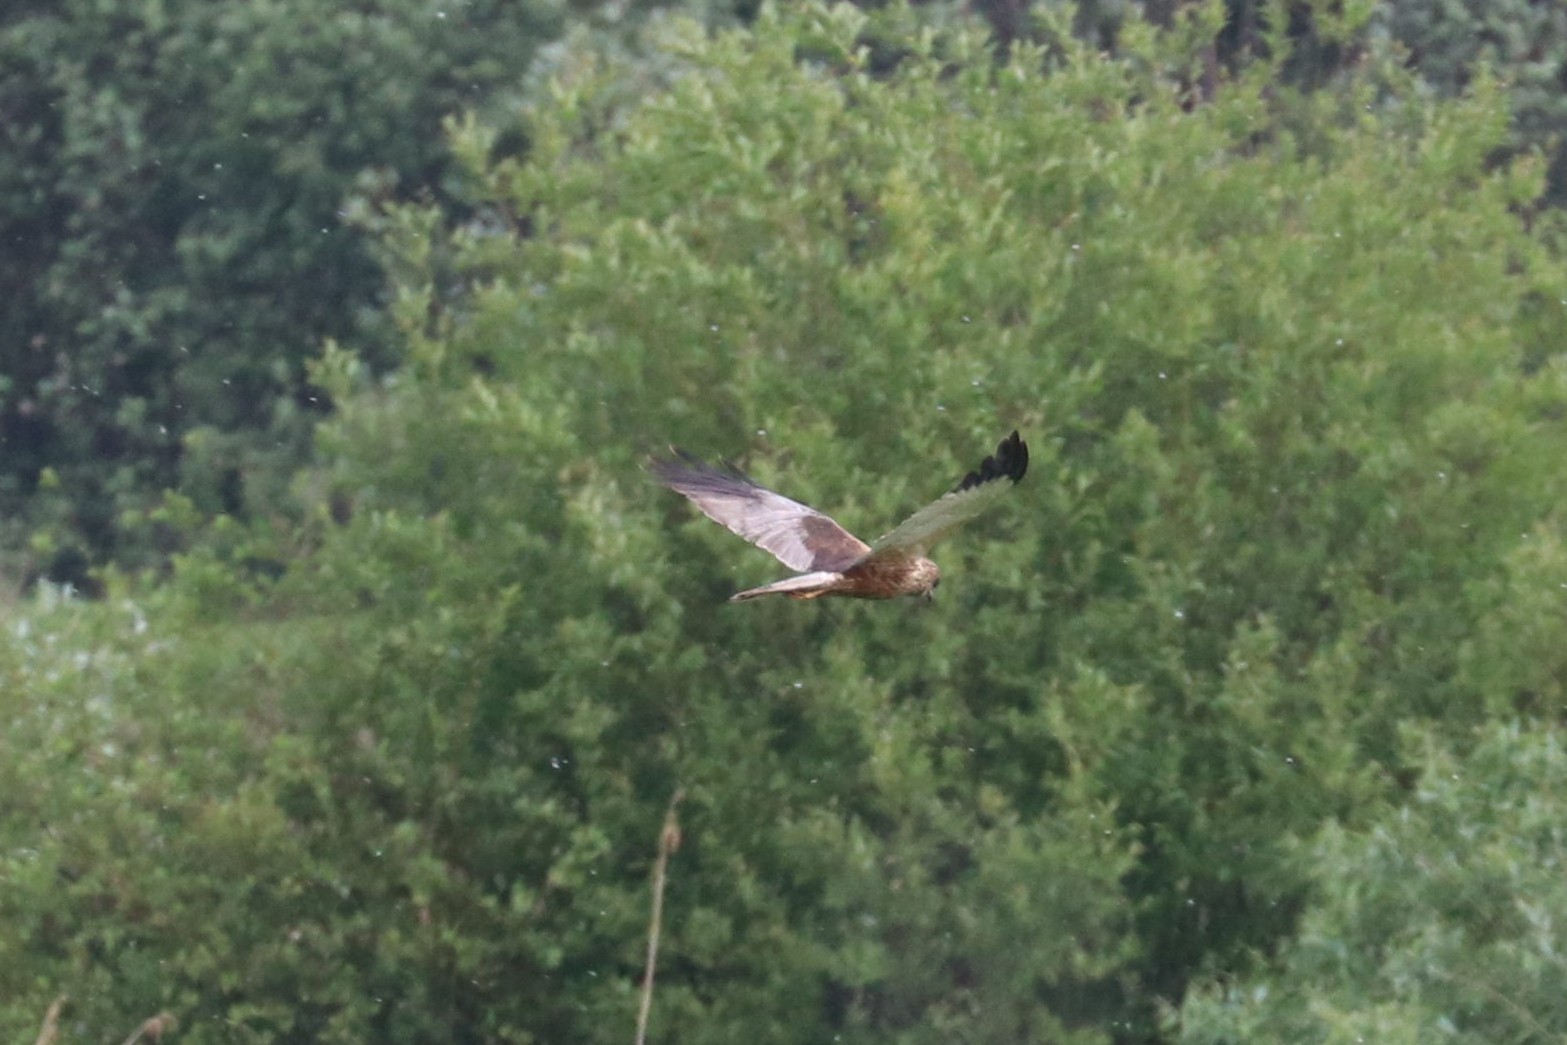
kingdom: Animalia
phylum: Chordata
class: Aves
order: Accipitriformes
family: Accipitridae
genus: Circus
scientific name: Circus aeruginosus
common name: Western marsh harrier
